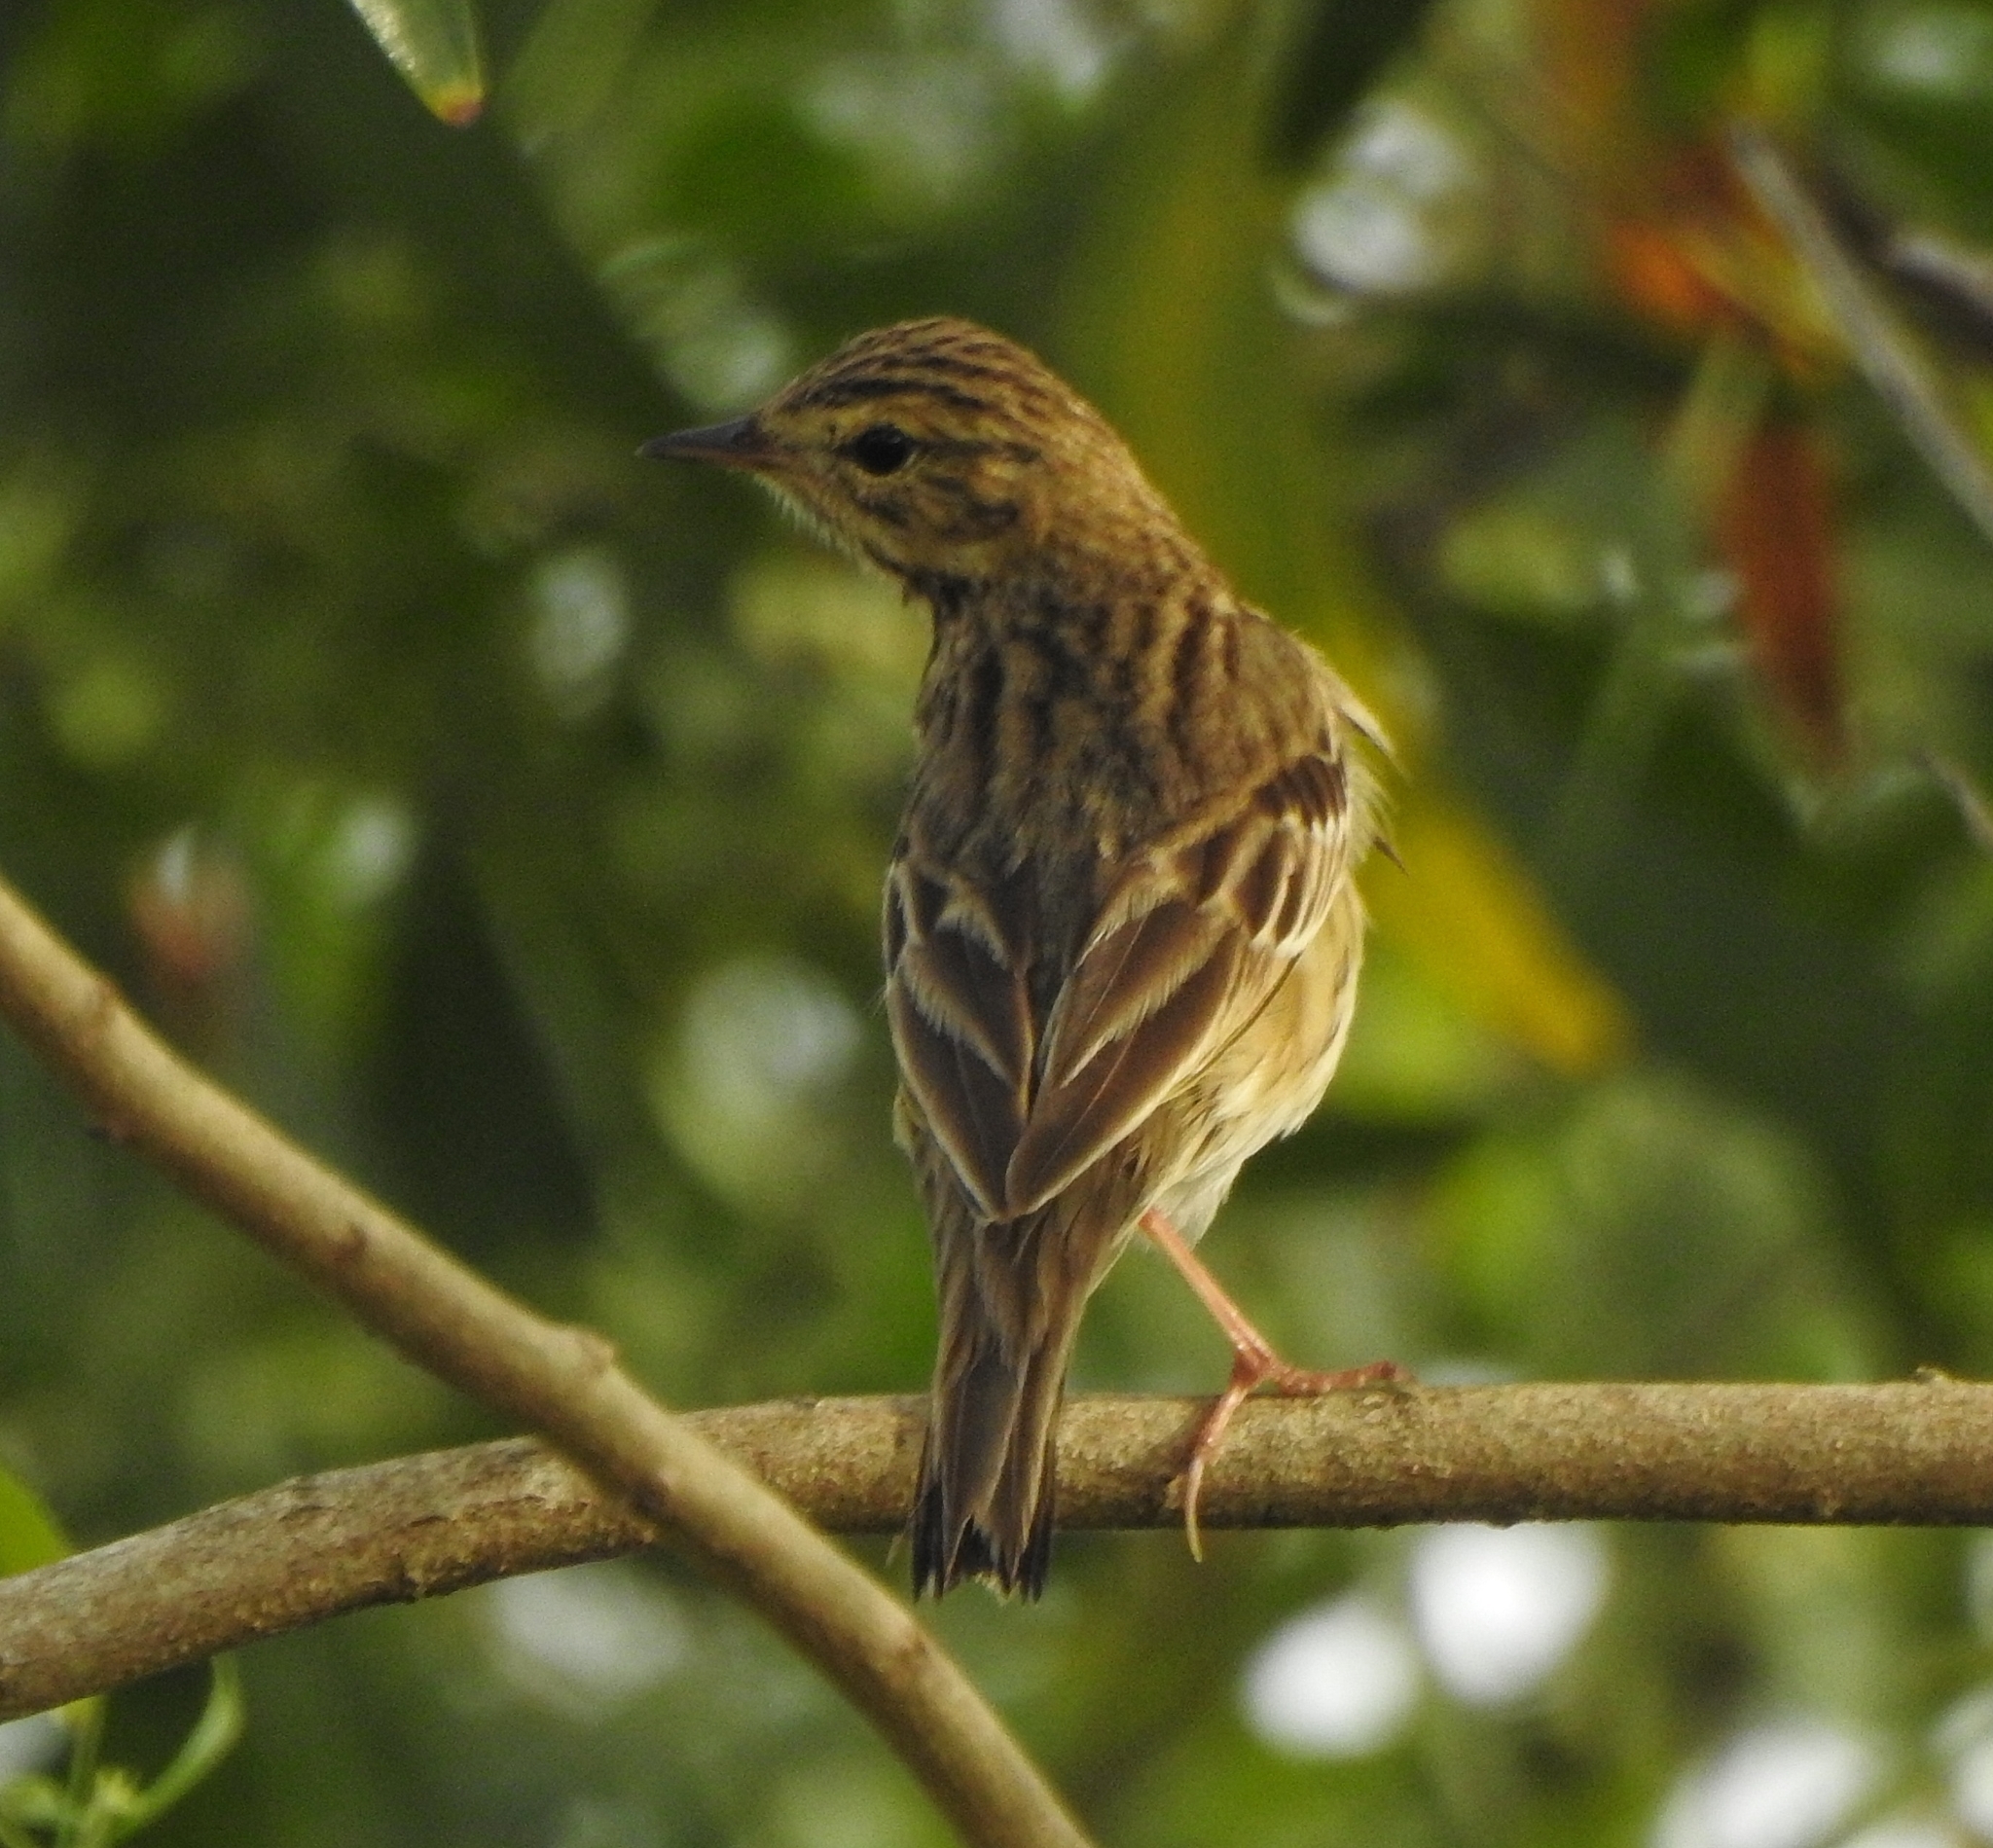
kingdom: Animalia
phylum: Chordata
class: Aves
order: Passeriformes
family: Motacillidae
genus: Anthus
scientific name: Anthus trivialis
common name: Tree pipit
